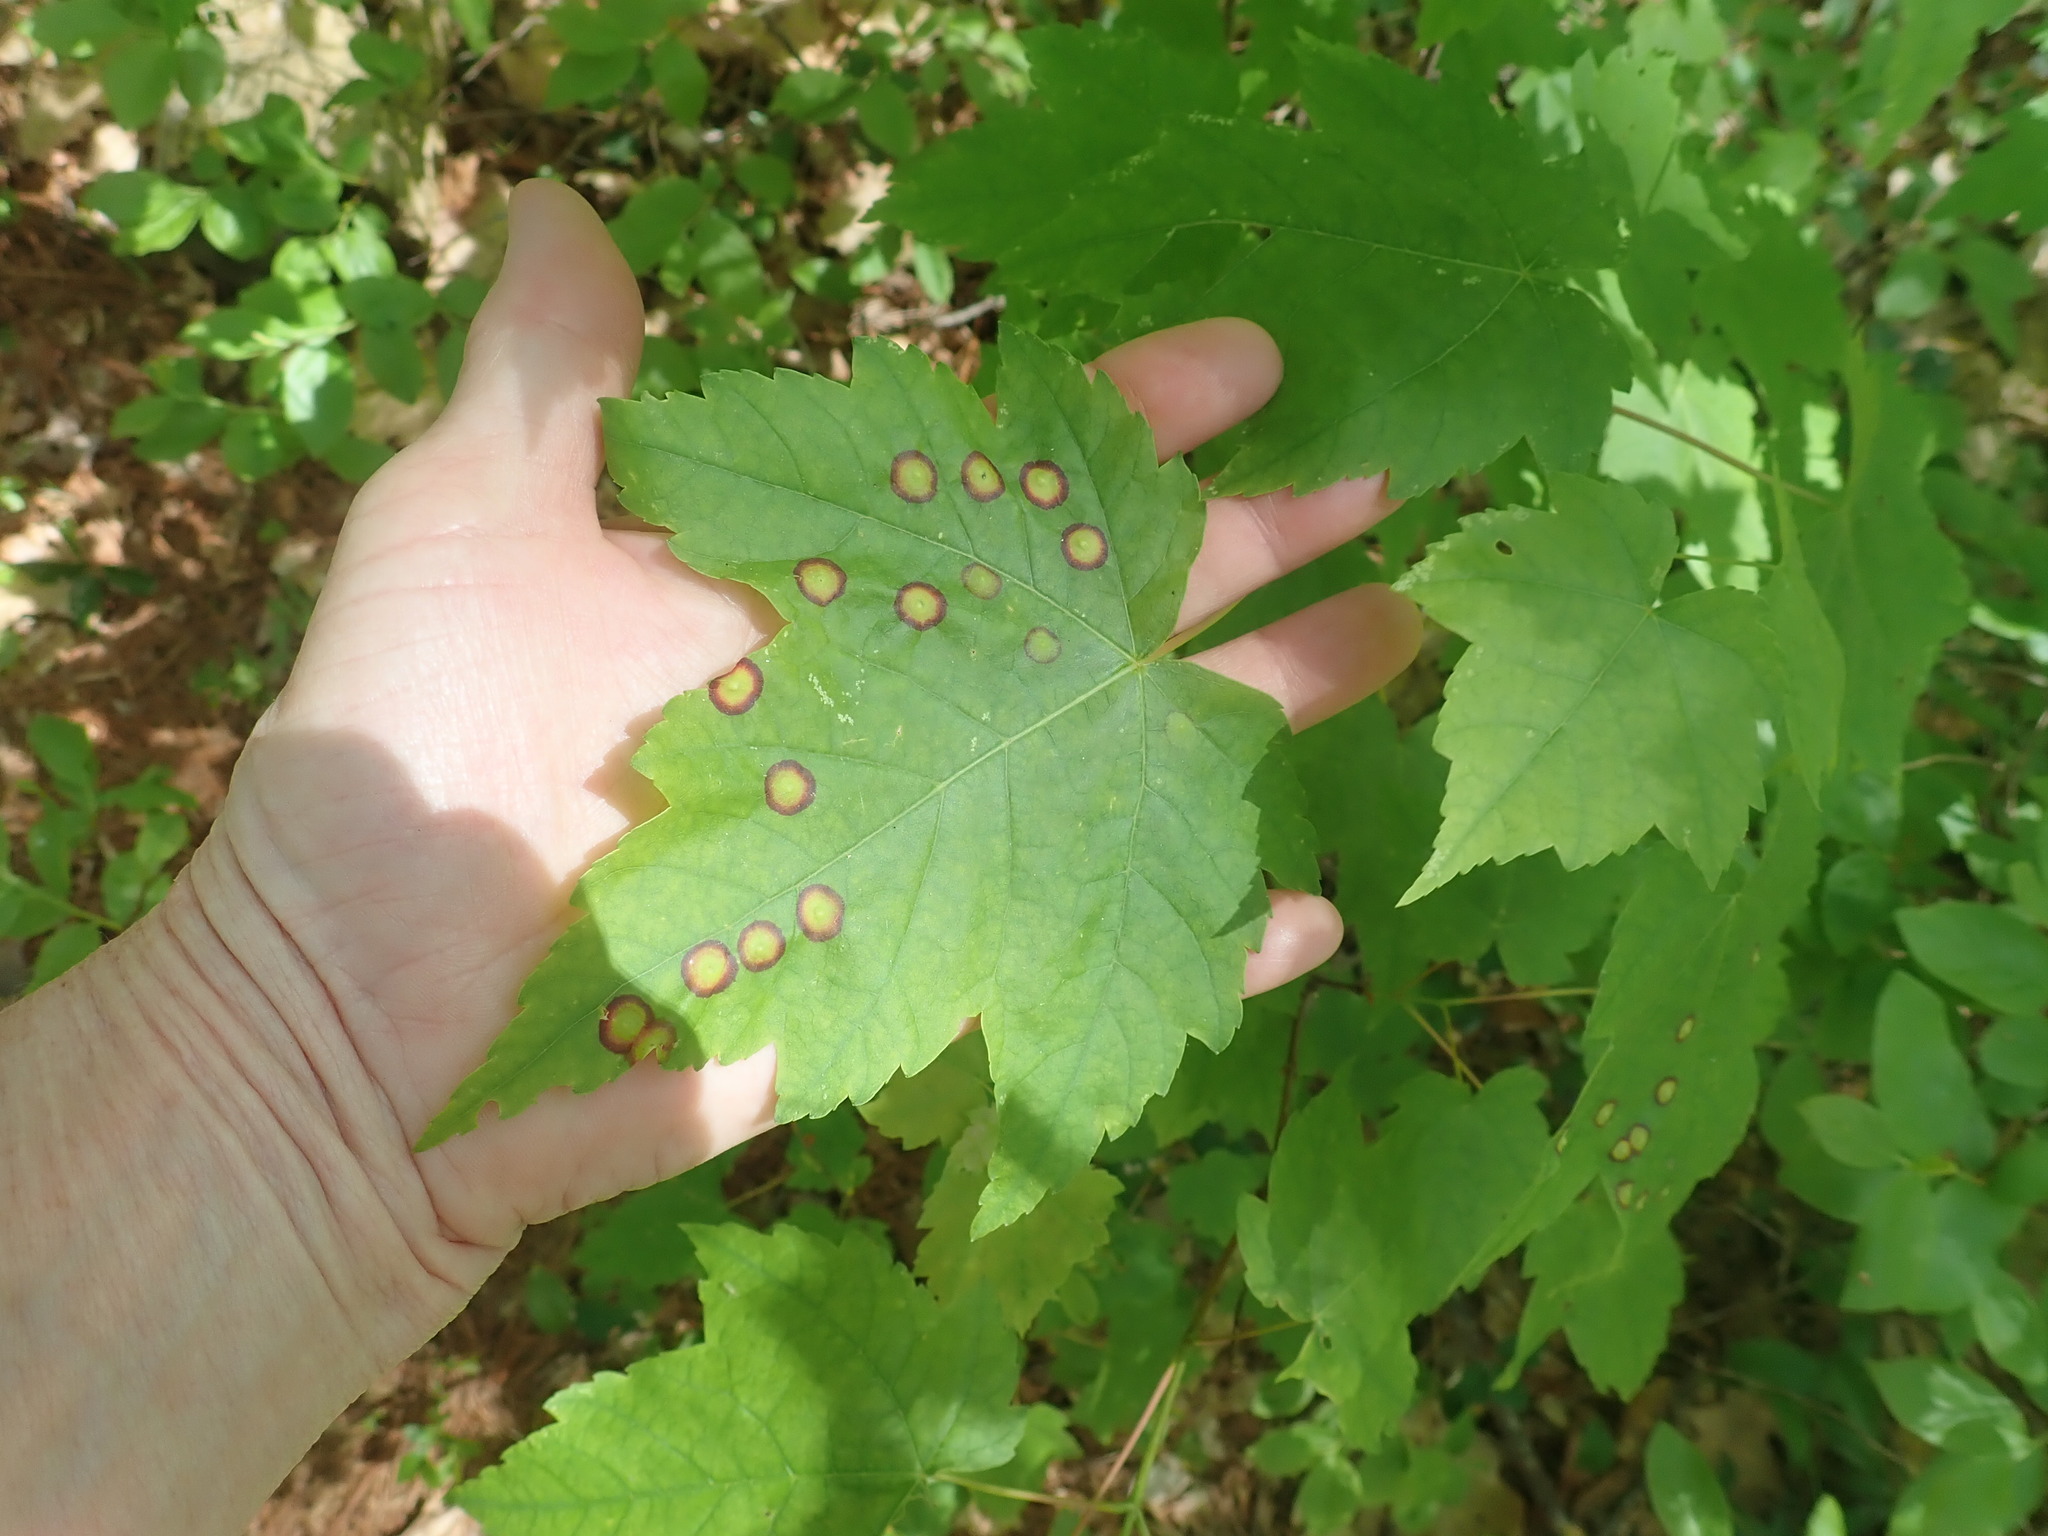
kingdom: Animalia
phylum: Arthropoda
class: Insecta
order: Diptera
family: Cecidomyiidae
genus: Acericecis
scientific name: Acericecis ocellaris
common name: Ocellate gall midge
